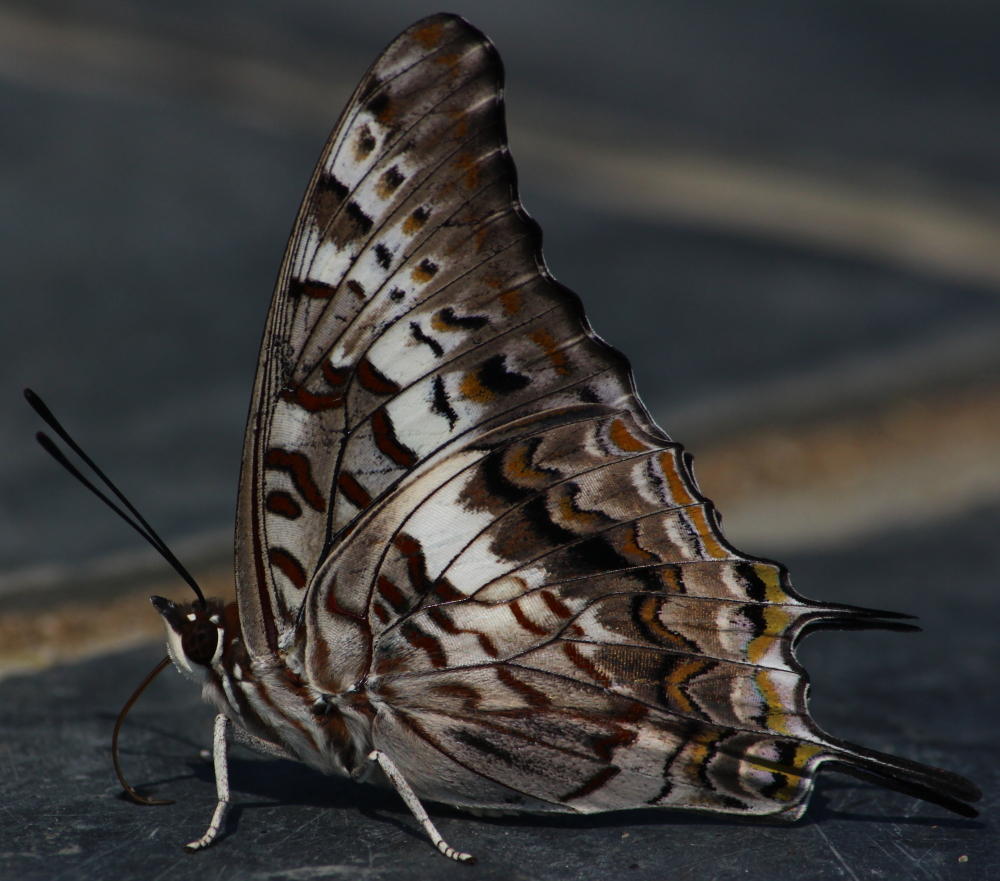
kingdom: Animalia
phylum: Arthropoda
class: Insecta
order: Lepidoptera
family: Nymphalidae
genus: Charaxes
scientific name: Charaxes achaemenes
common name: Bushveld charaxes
